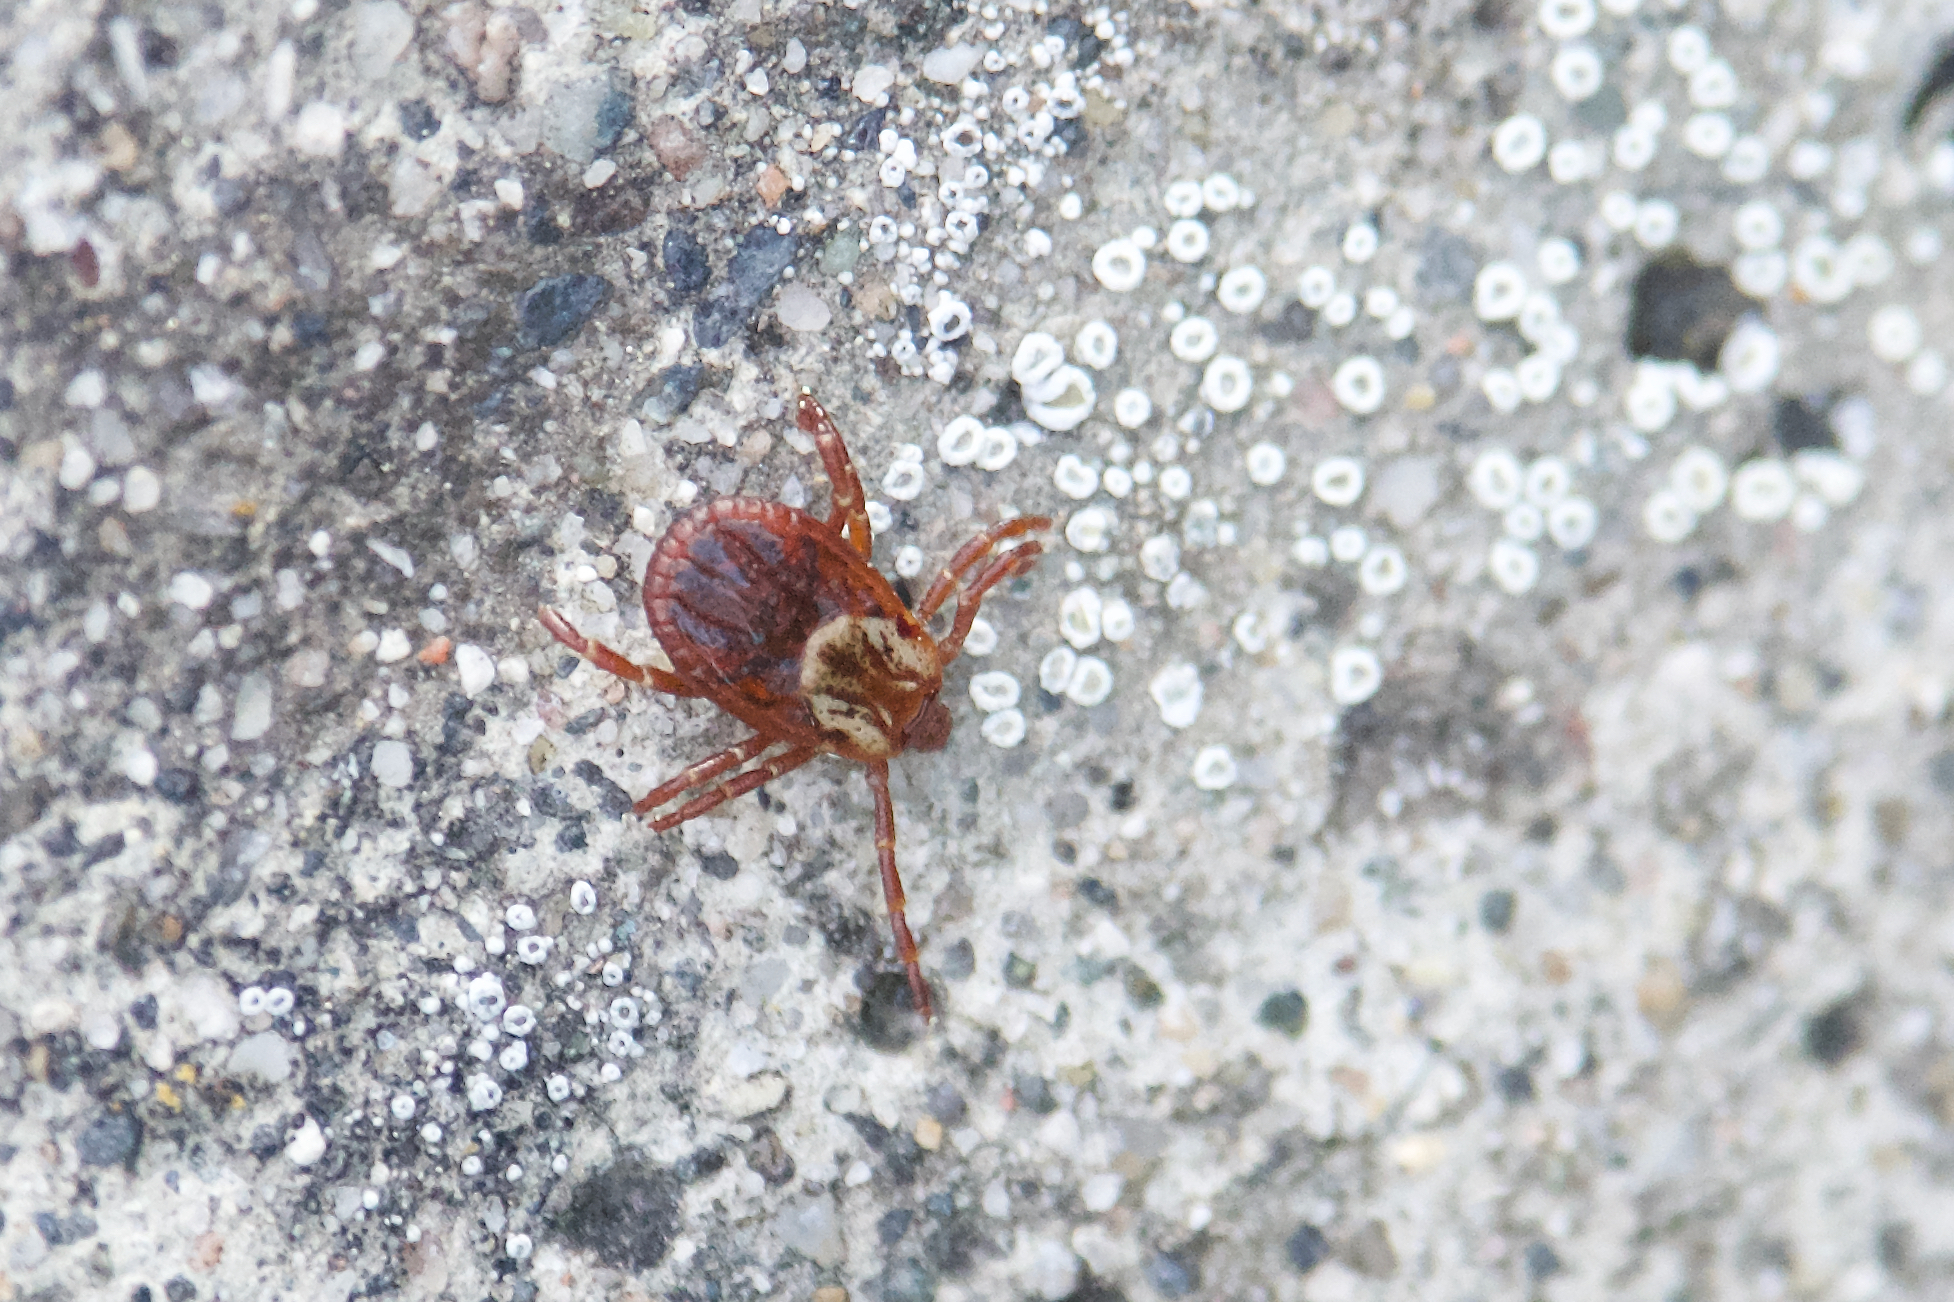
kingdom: Animalia
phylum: Arthropoda
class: Arachnida
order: Ixodida
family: Ixodidae
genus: Dermacentor
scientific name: Dermacentor variabilis
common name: American dog tick
